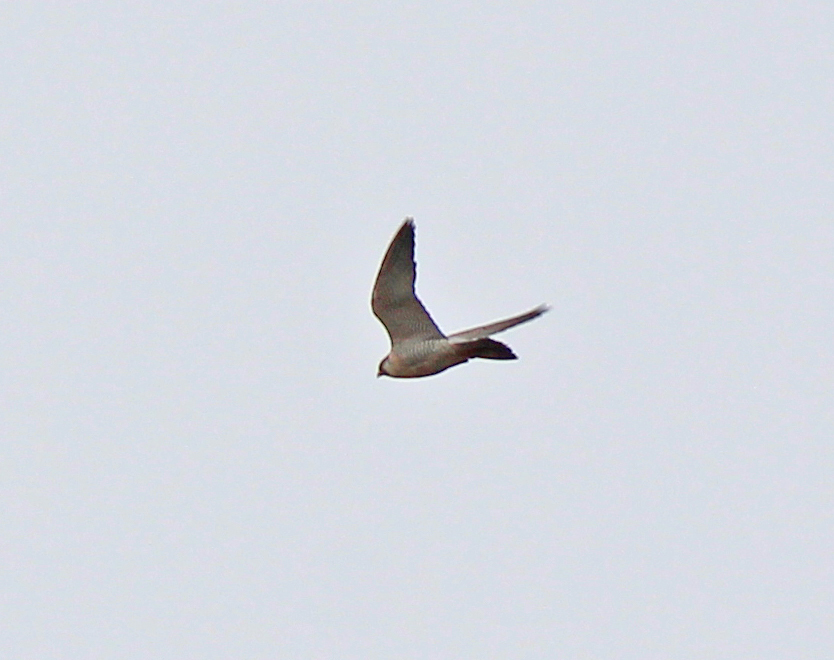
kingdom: Animalia
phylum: Chordata
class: Aves
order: Falconiformes
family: Falconidae
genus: Falco
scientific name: Falco peregrinus
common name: Peregrine falcon
